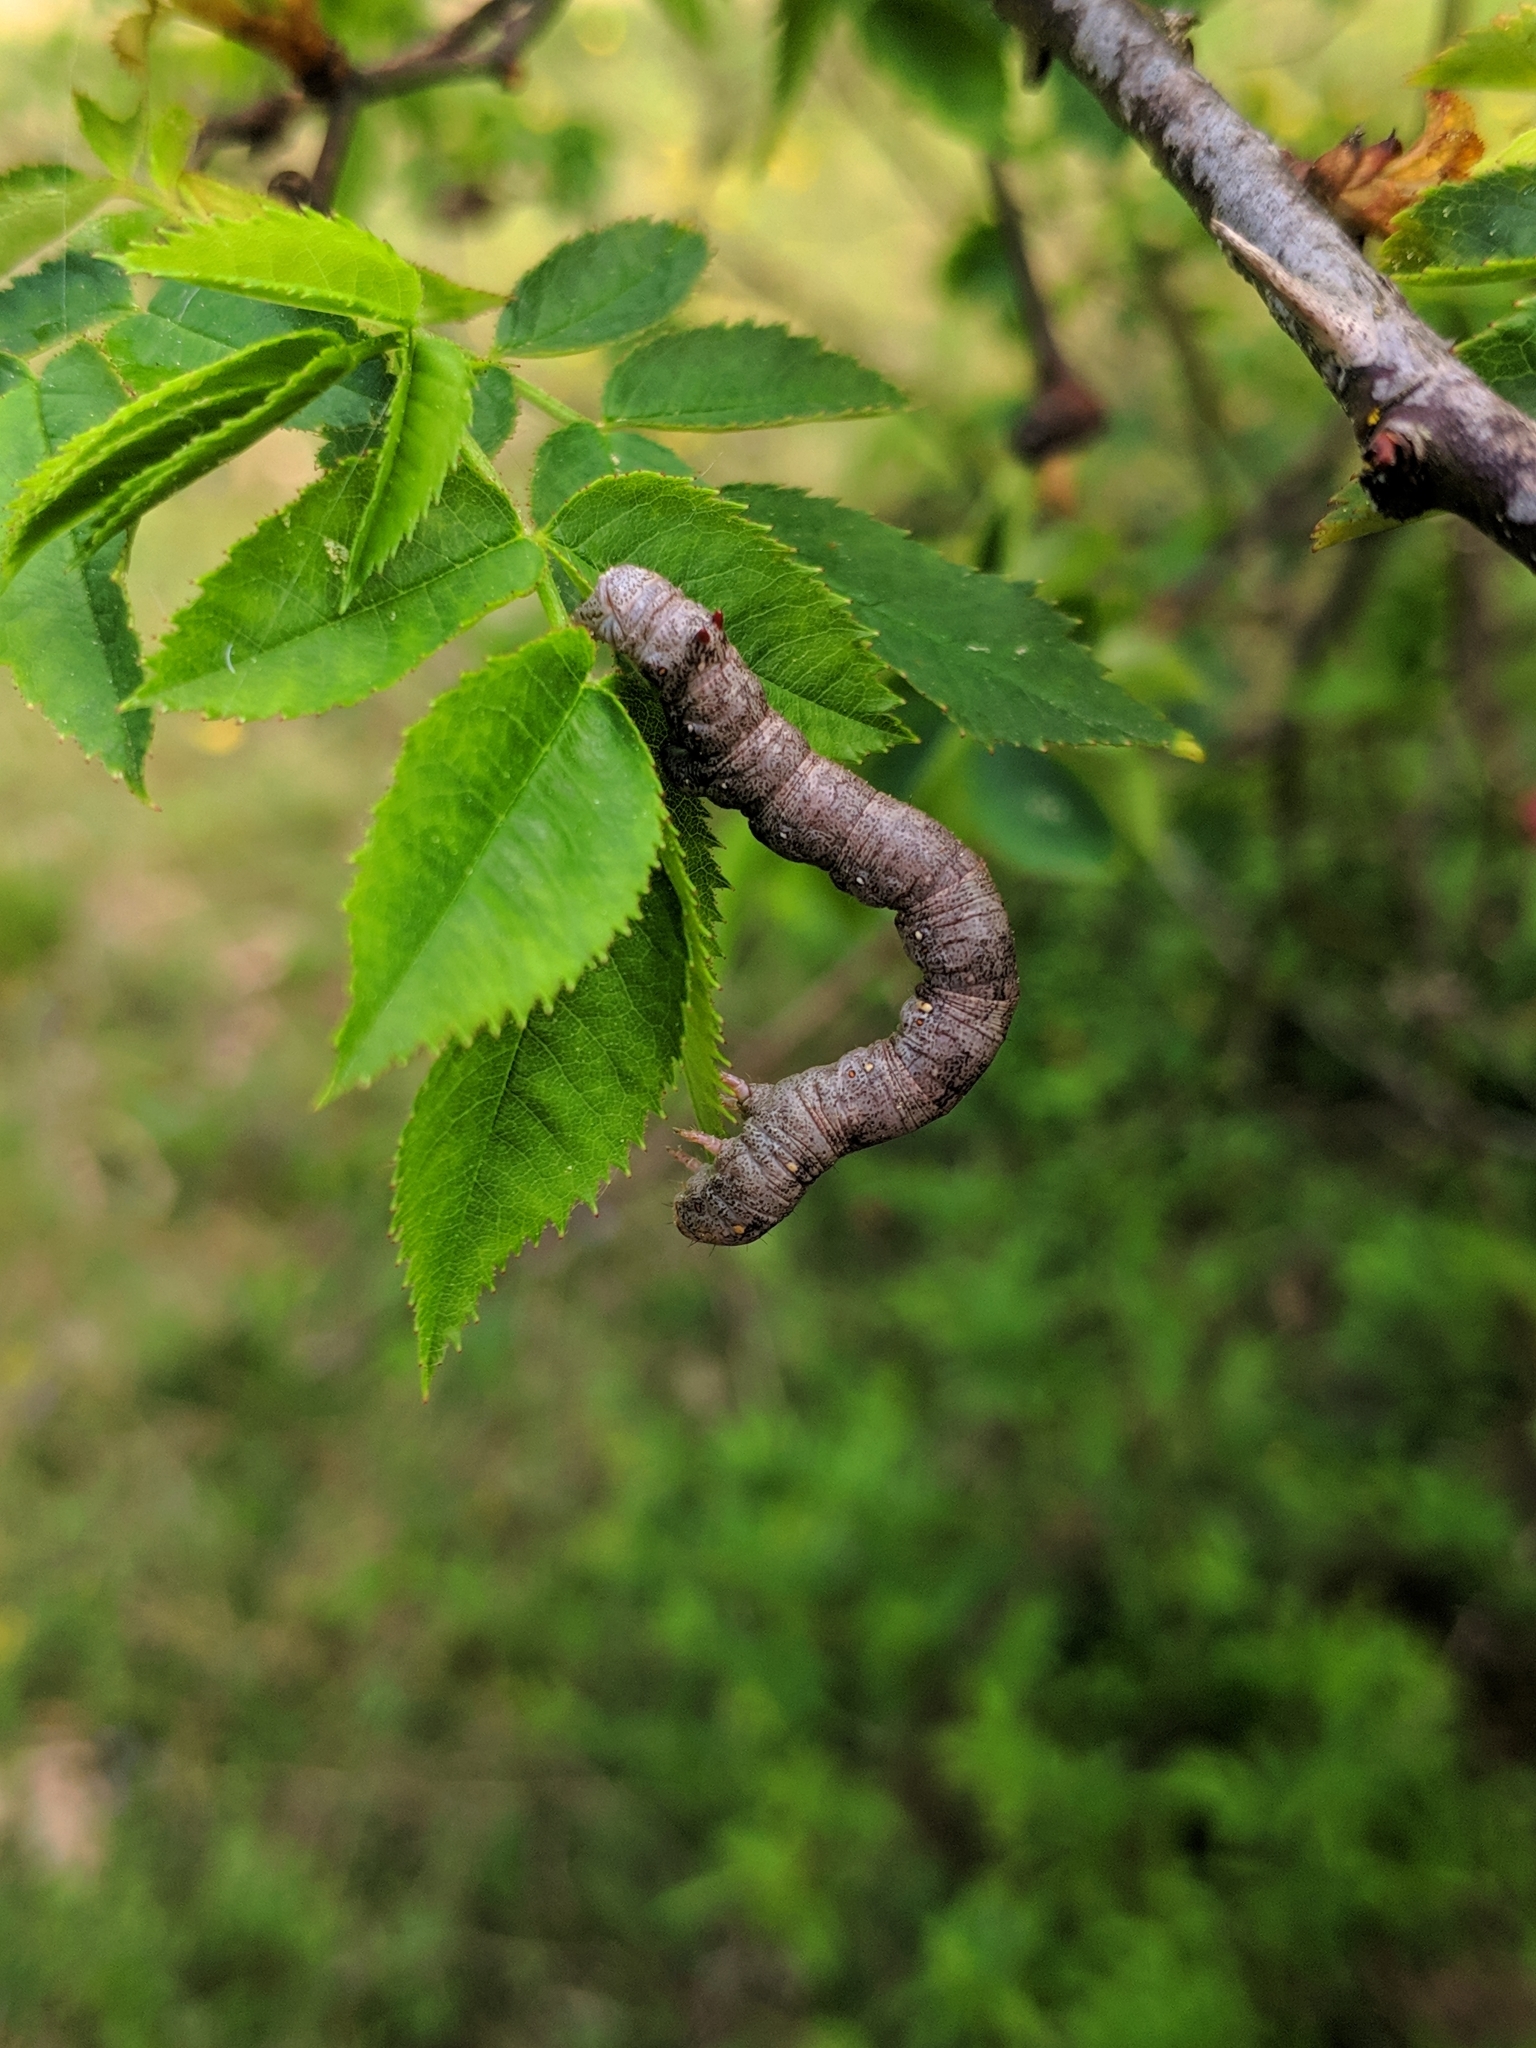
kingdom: Animalia
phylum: Arthropoda
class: Insecta
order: Lepidoptera
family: Geometridae
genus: Colotois
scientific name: Colotois pennaria
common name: Feathered thorn
